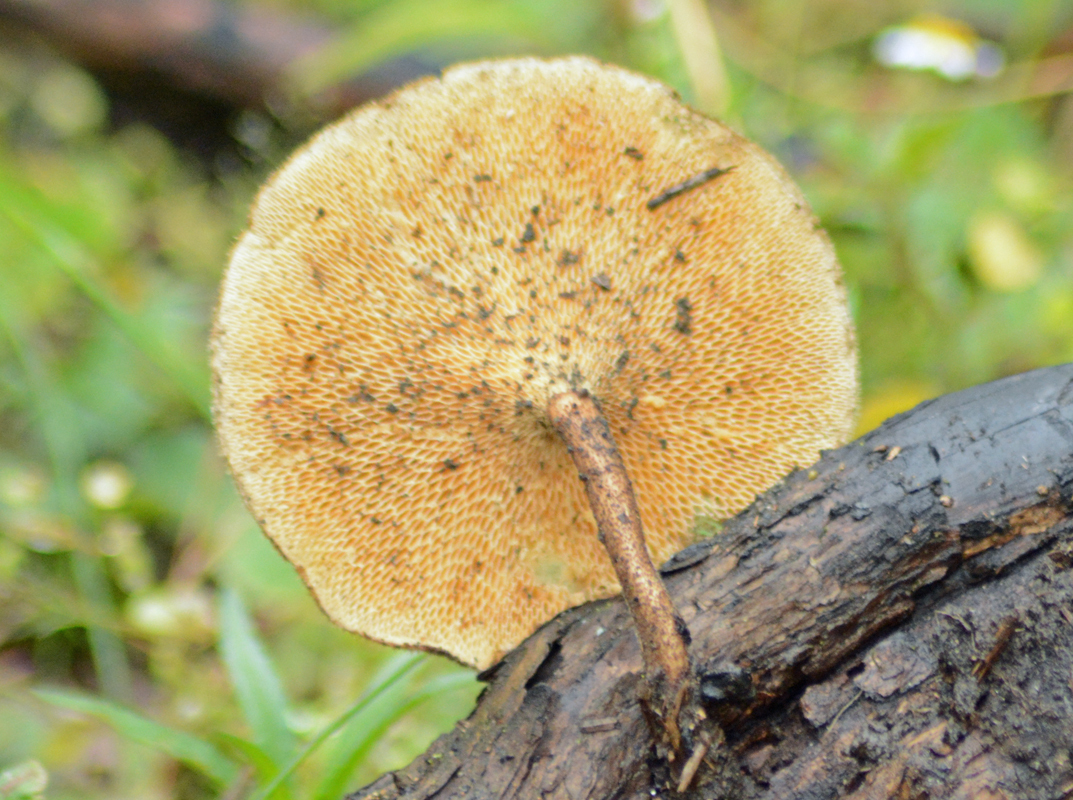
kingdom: Fungi
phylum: Basidiomycota
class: Agaricomycetes
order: Polyporales
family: Polyporaceae
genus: Lentinus
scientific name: Lentinus arcularius
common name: Spring polypore
